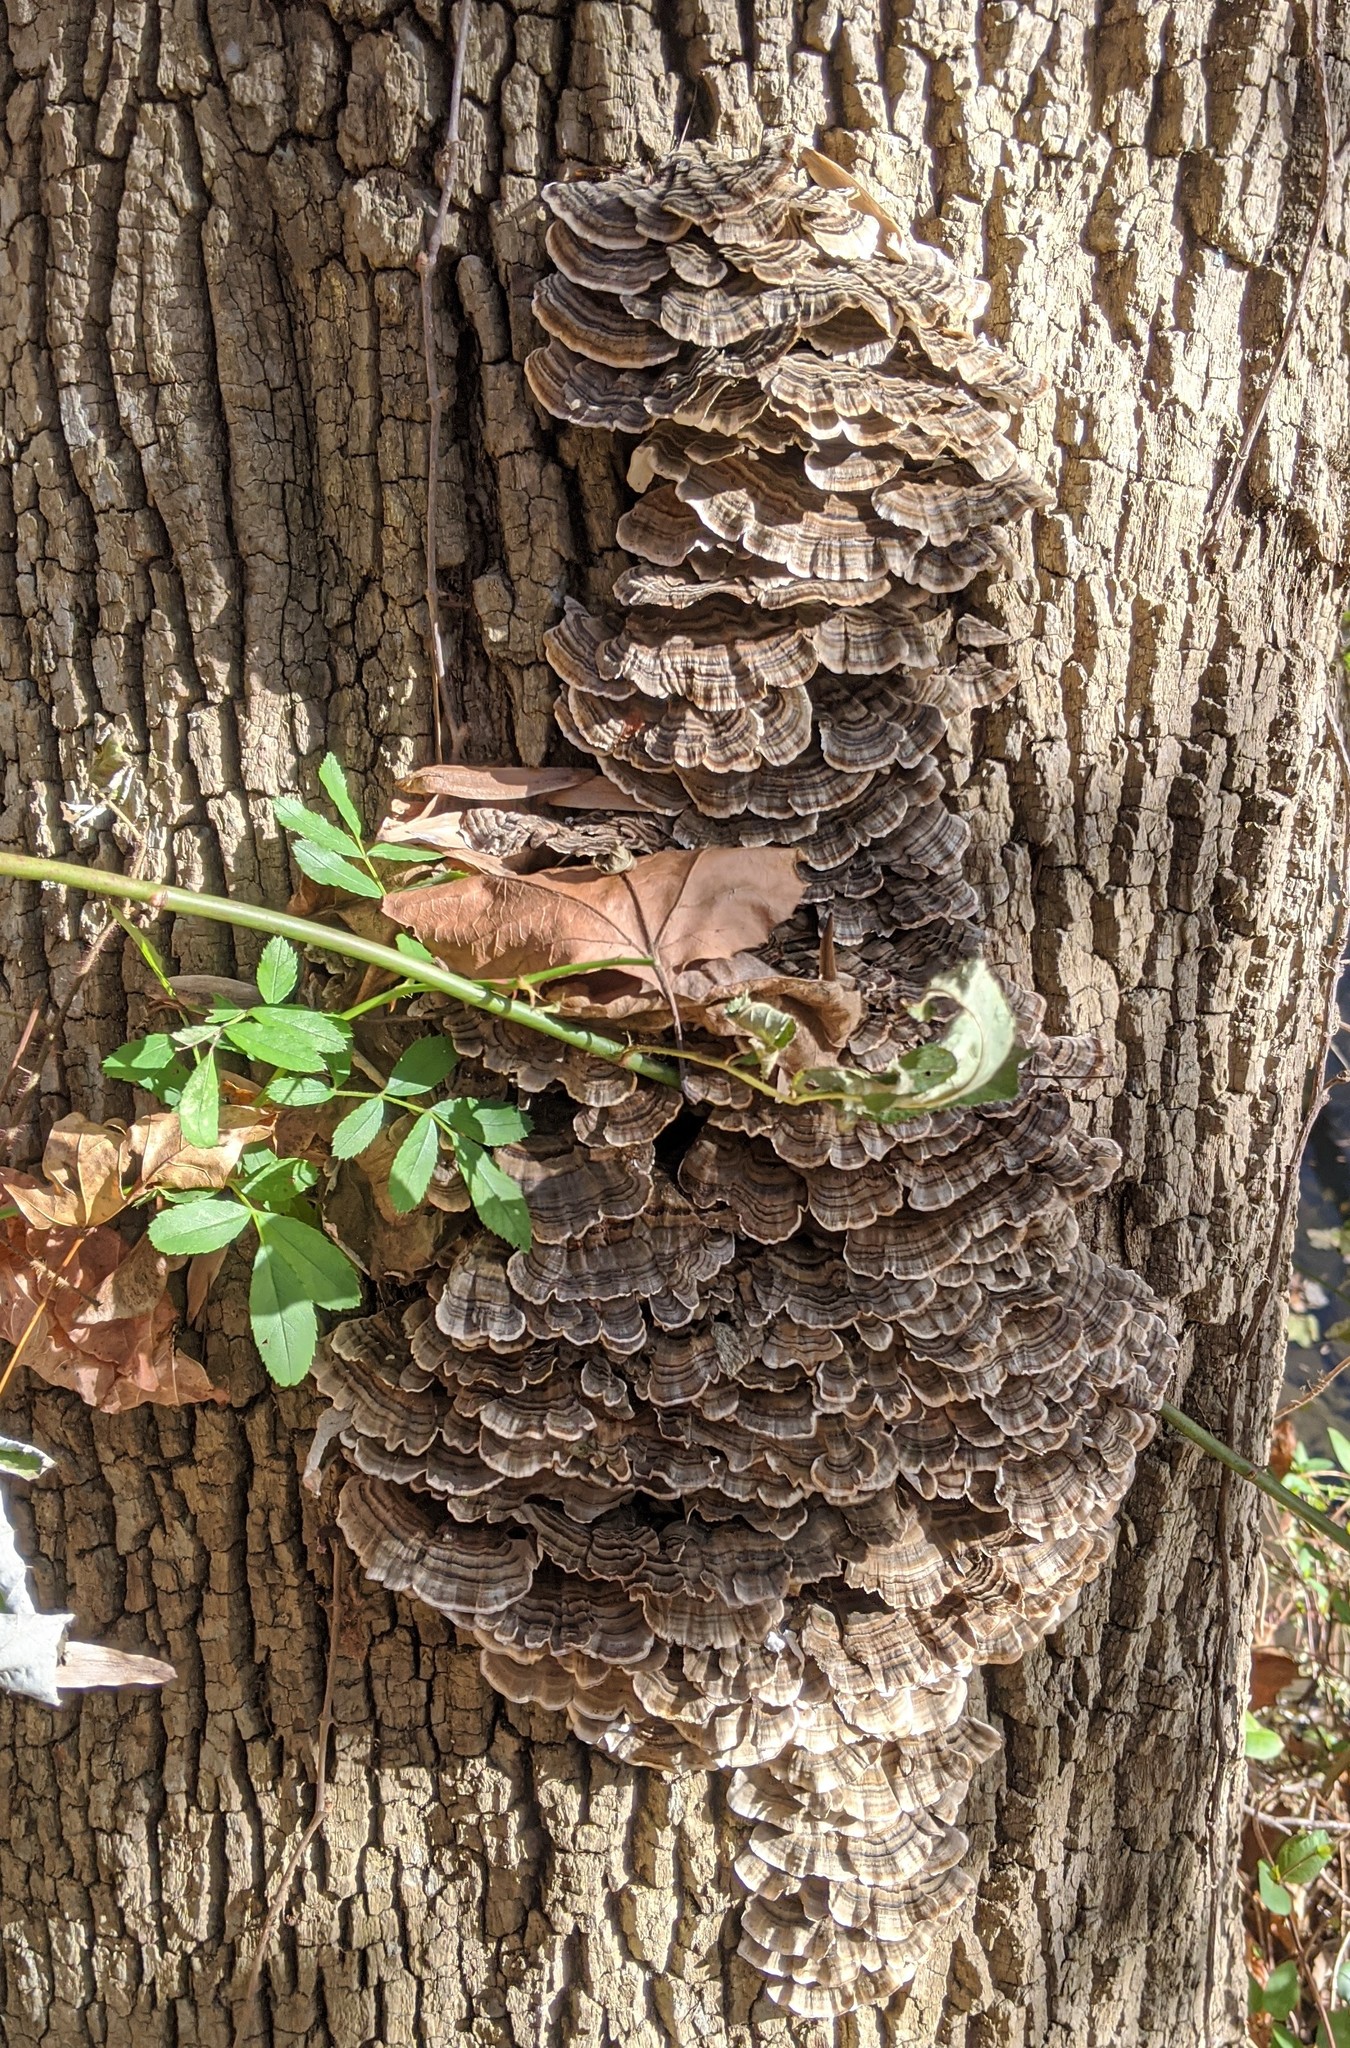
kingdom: Fungi
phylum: Basidiomycota
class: Agaricomycetes
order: Polyporales
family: Polyporaceae
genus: Trametes
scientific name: Trametes versicolor
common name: Turkeytail
